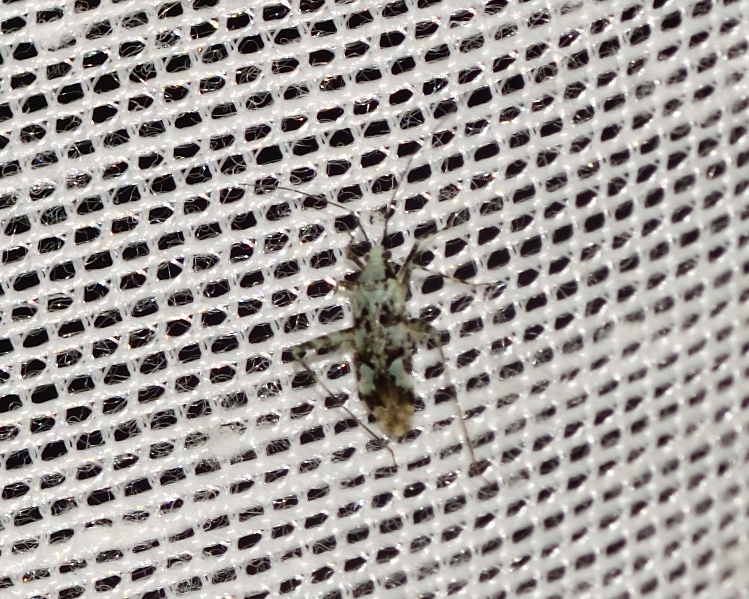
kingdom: Animalia
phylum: Arthropoda
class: Insecta
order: Hemiptera
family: Miridae
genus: Phytocoris
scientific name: Phytocoris tiliae
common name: Plant bug
